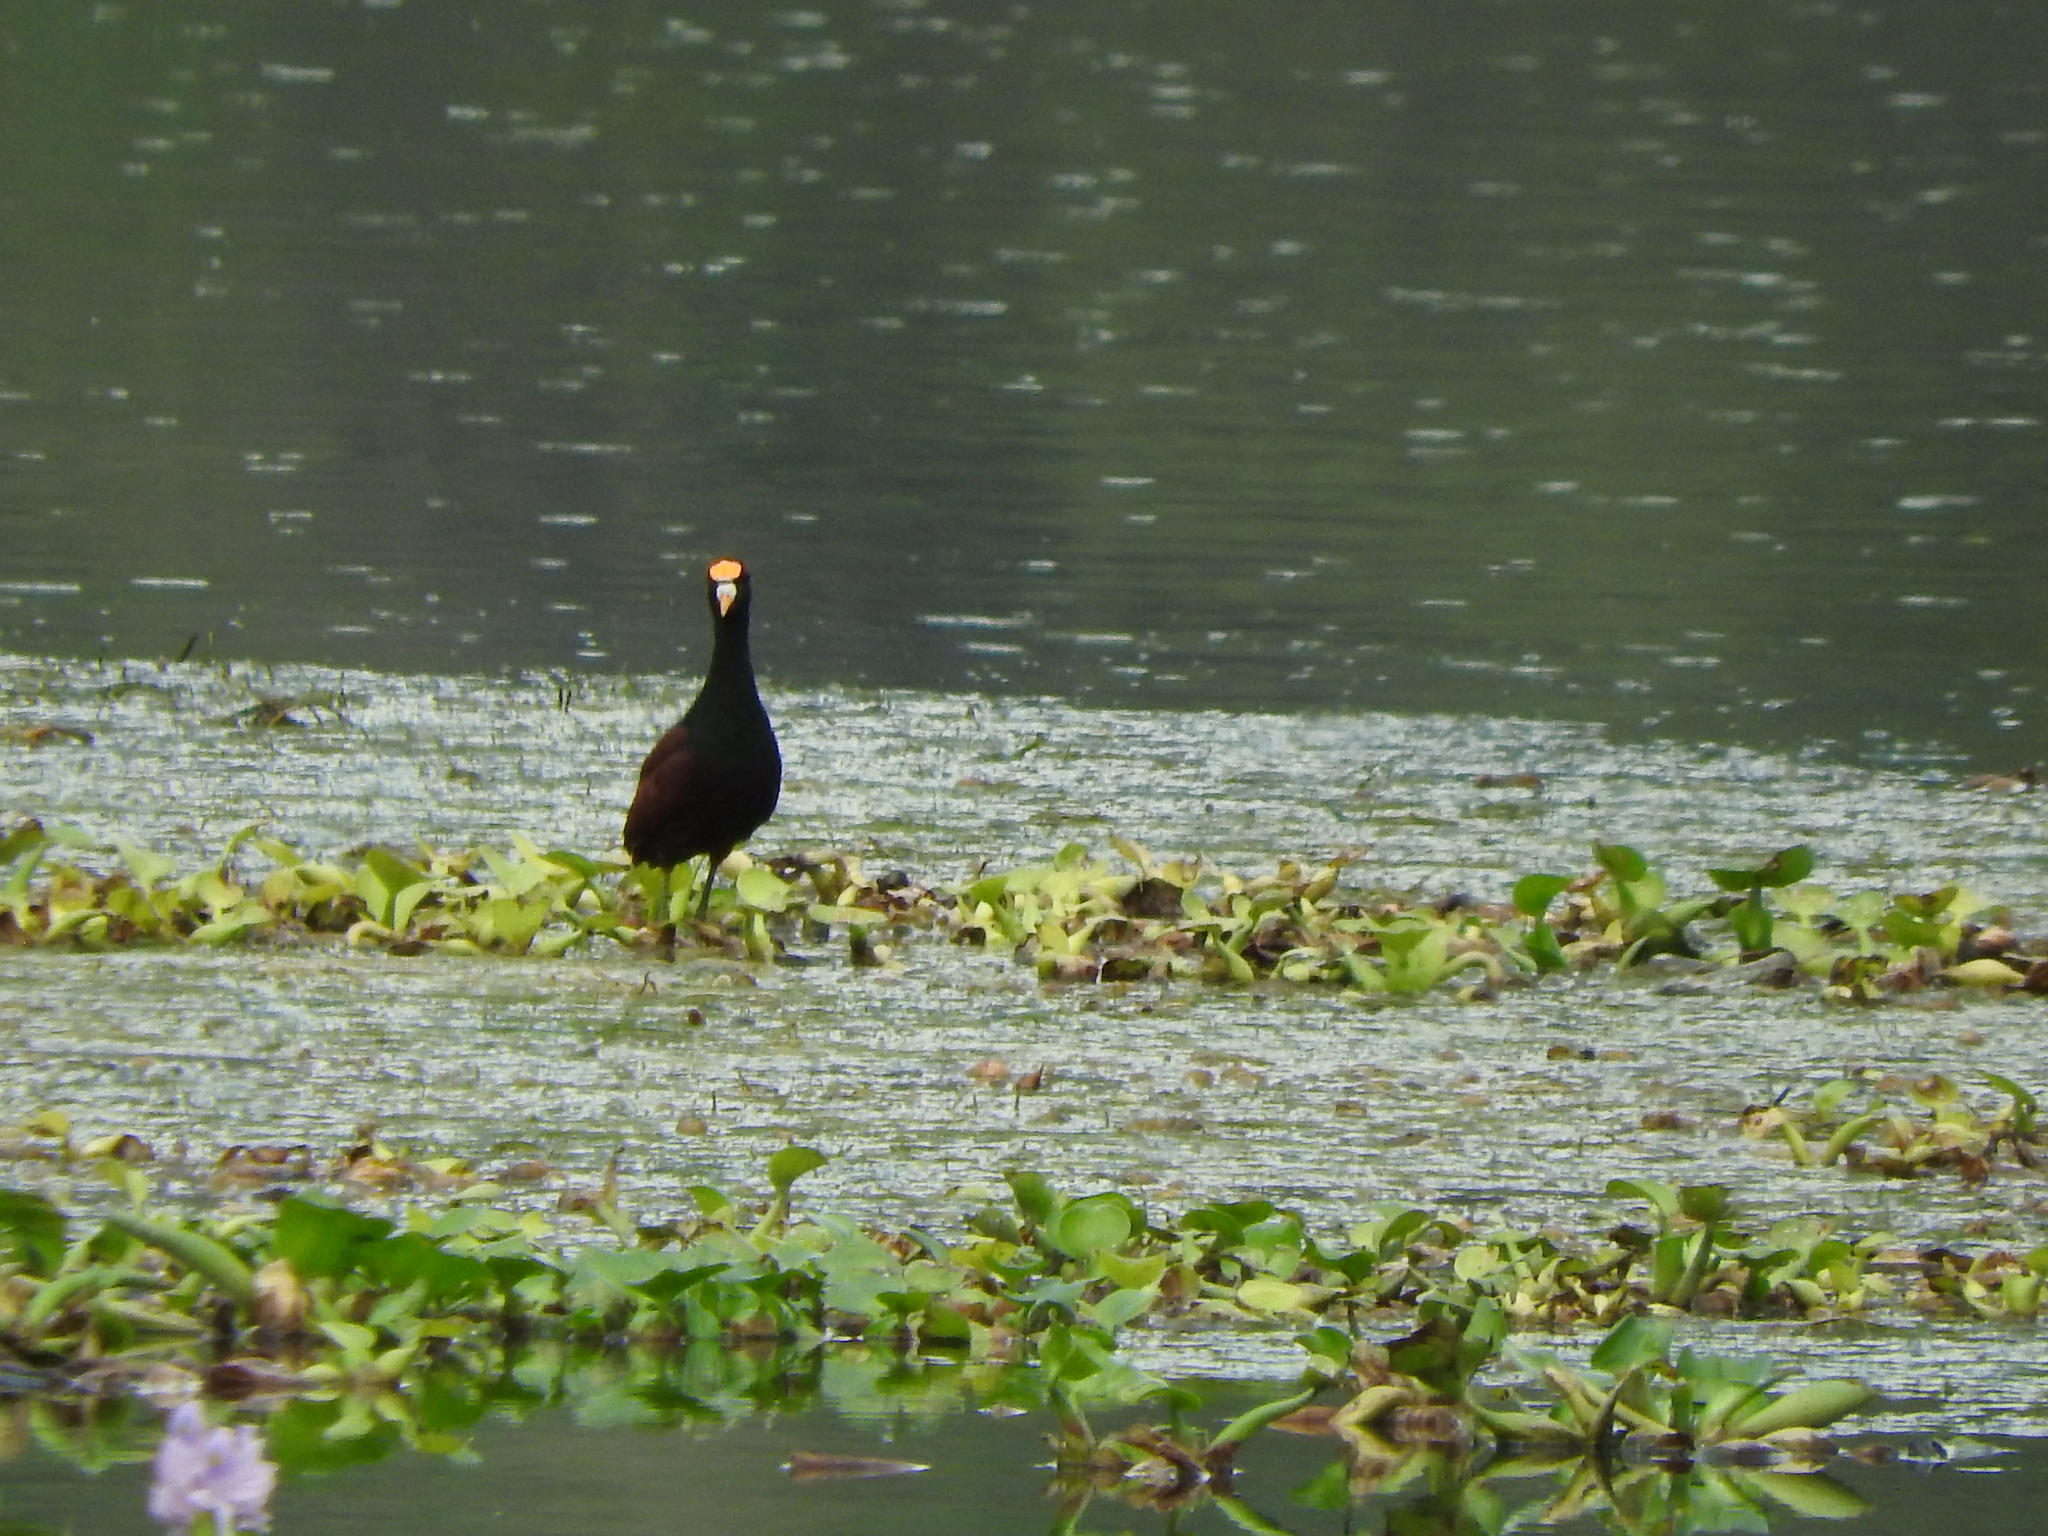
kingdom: Animalia
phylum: Chordata
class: Aves
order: Charadriiformes
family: Jacanidae
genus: Jacana
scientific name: Jacana spinosa
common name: Northern jacana
